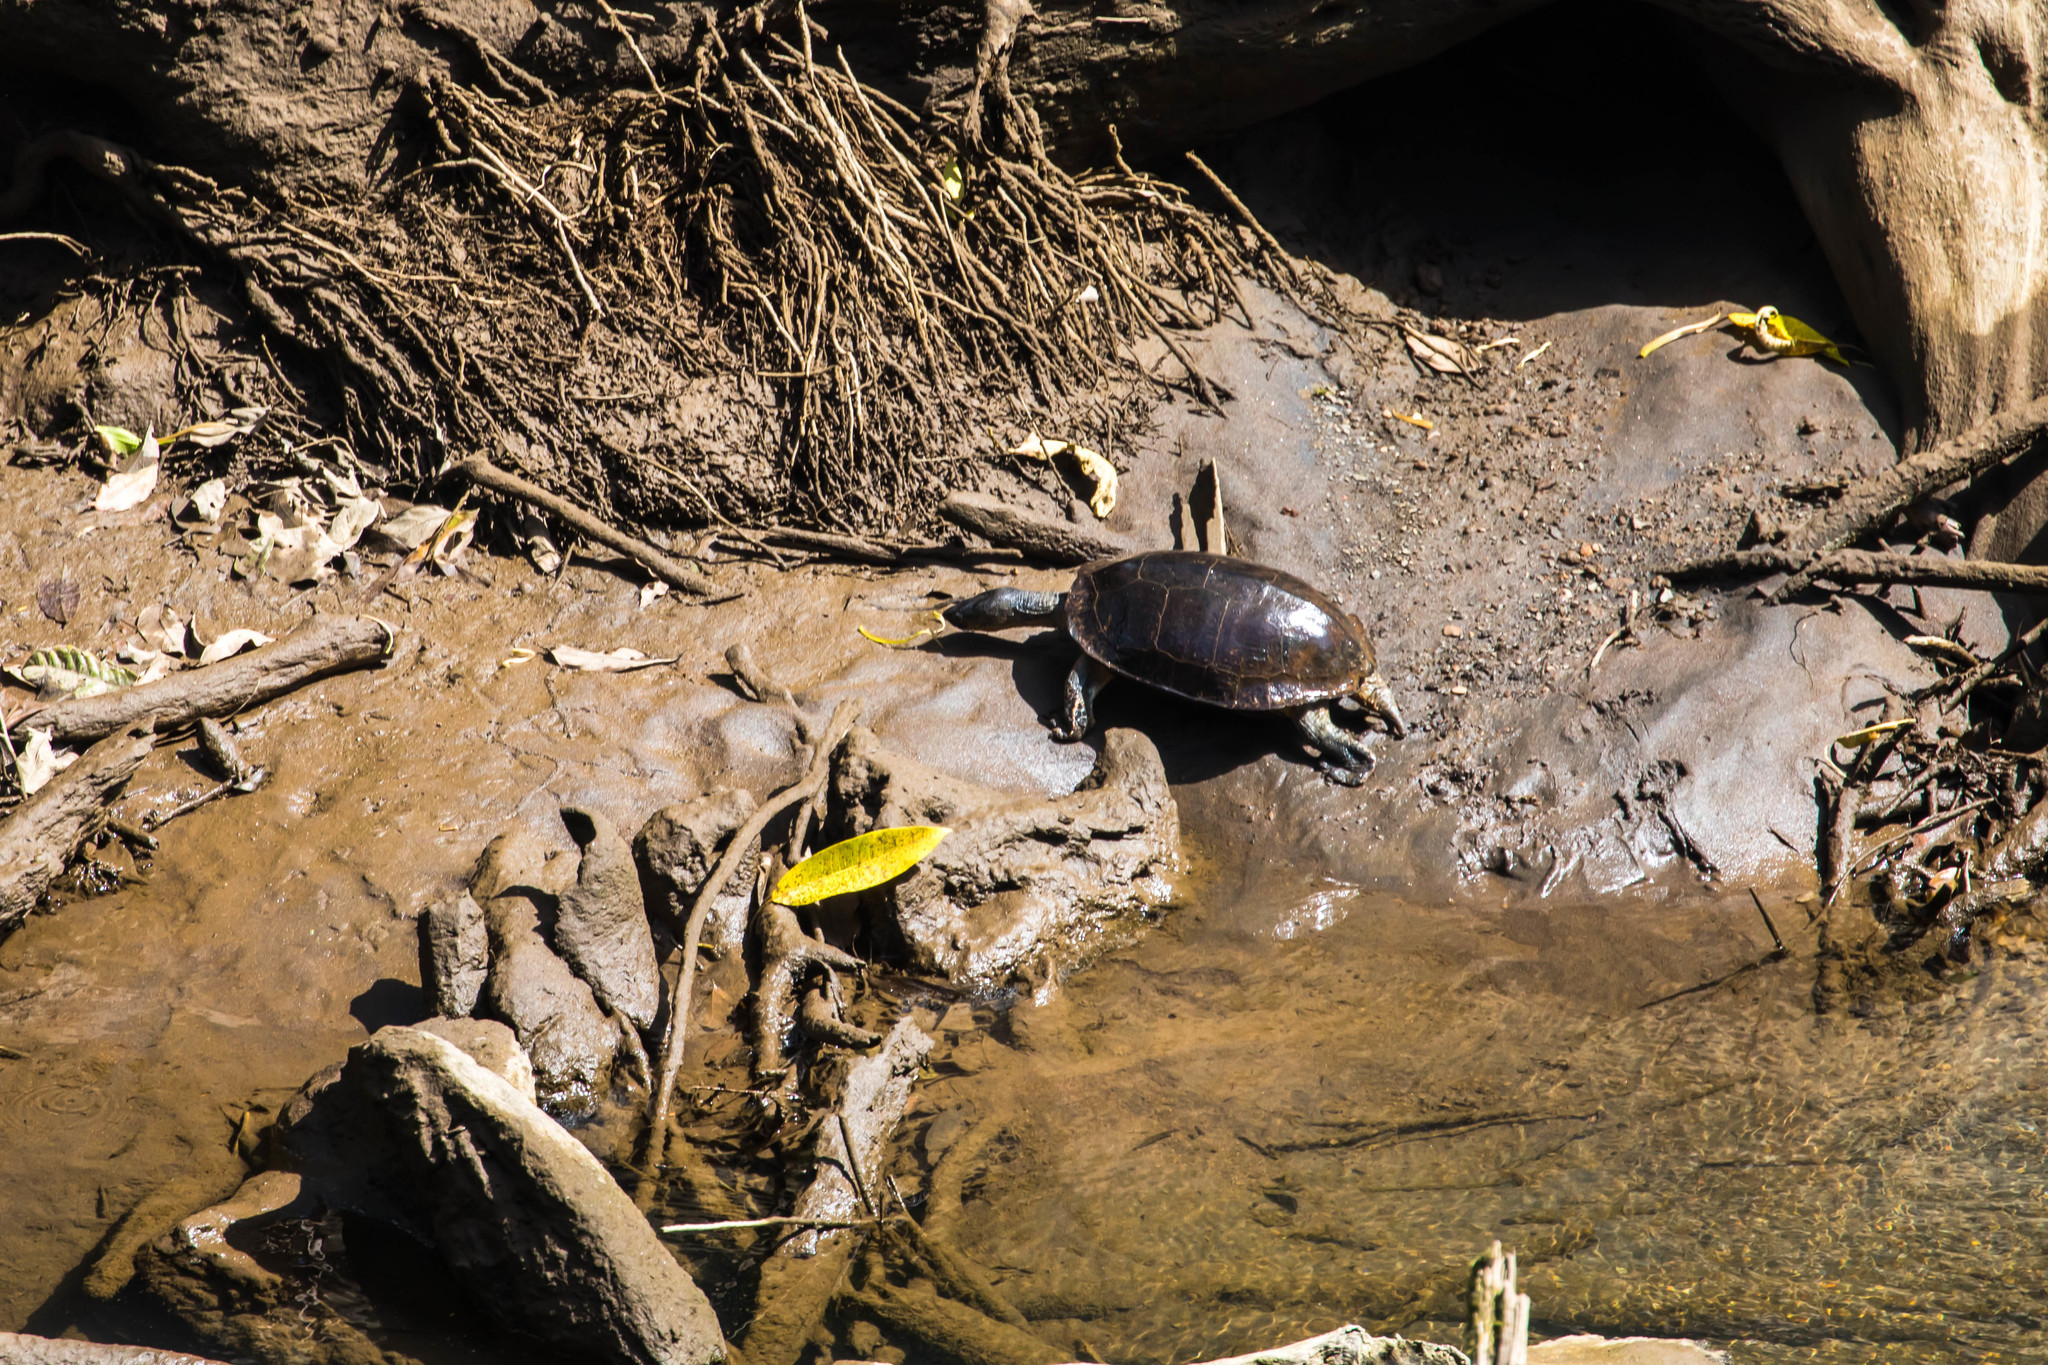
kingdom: Animalia
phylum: Chordata
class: Testudines
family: Geoemydidae
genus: Rhinoclemmys
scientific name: Rhinoclemmys funerea
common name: Black wood turtle
